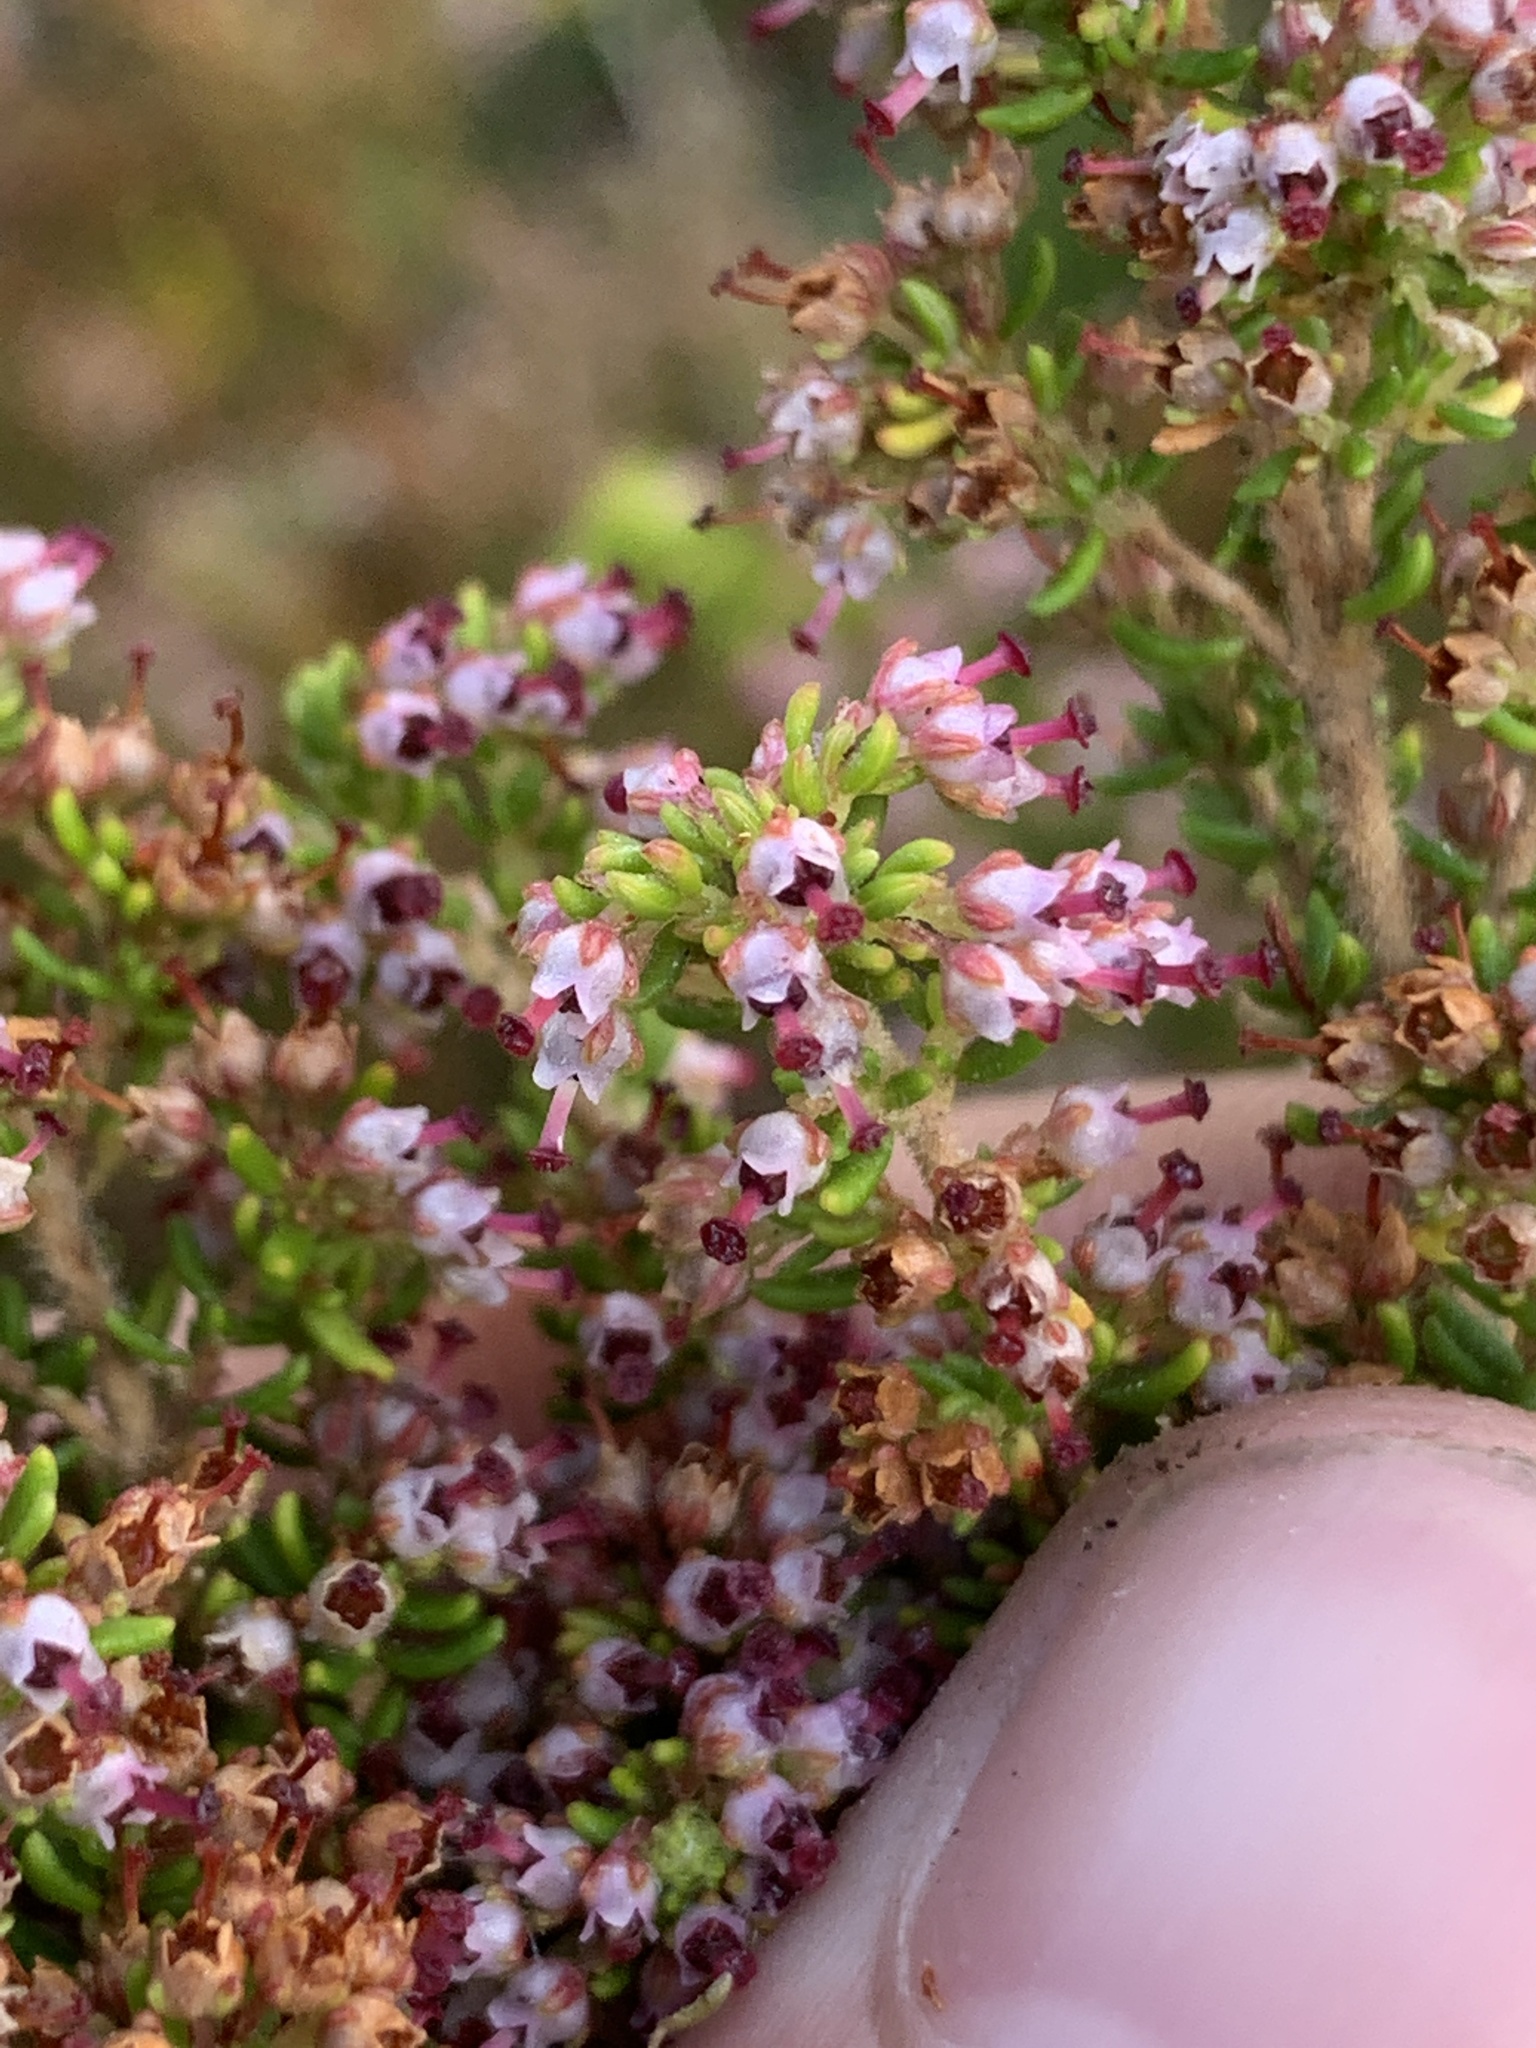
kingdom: Plantae
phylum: Tracheophyta
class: Magnoliopsida
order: Ericales
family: Ericaceae
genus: Erica
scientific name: Erica hispidula
